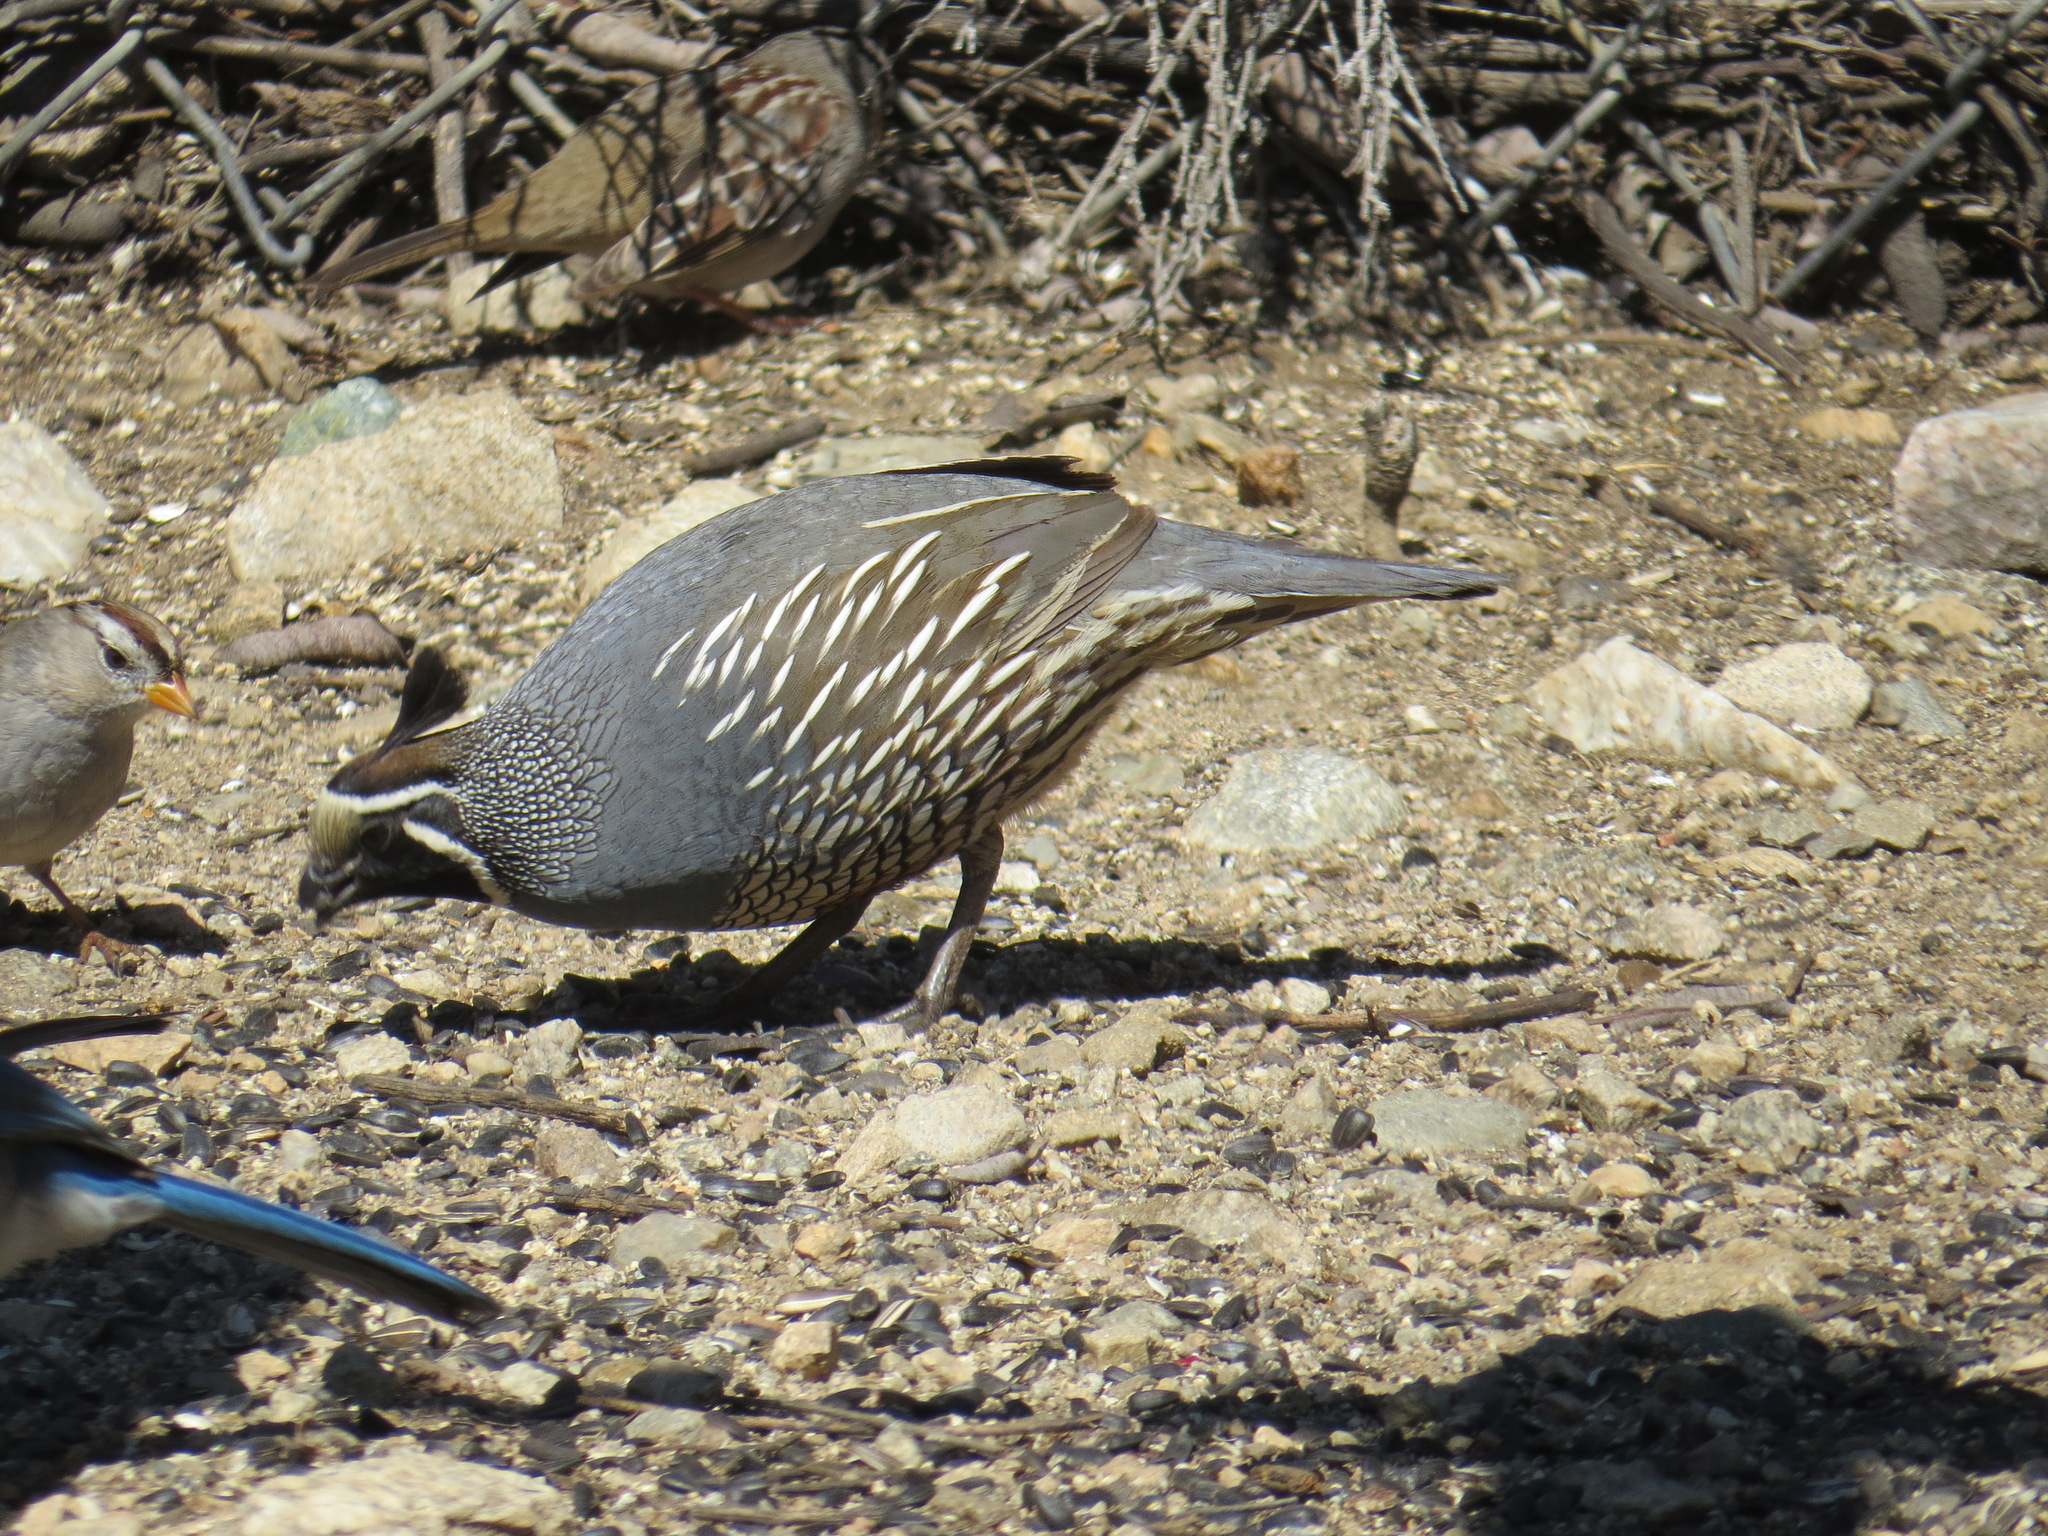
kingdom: Animalia
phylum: Chordata
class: Aves
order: Galliformes
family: Odontophoridae
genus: Callipepla
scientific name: Callipepla californica
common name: California quail
